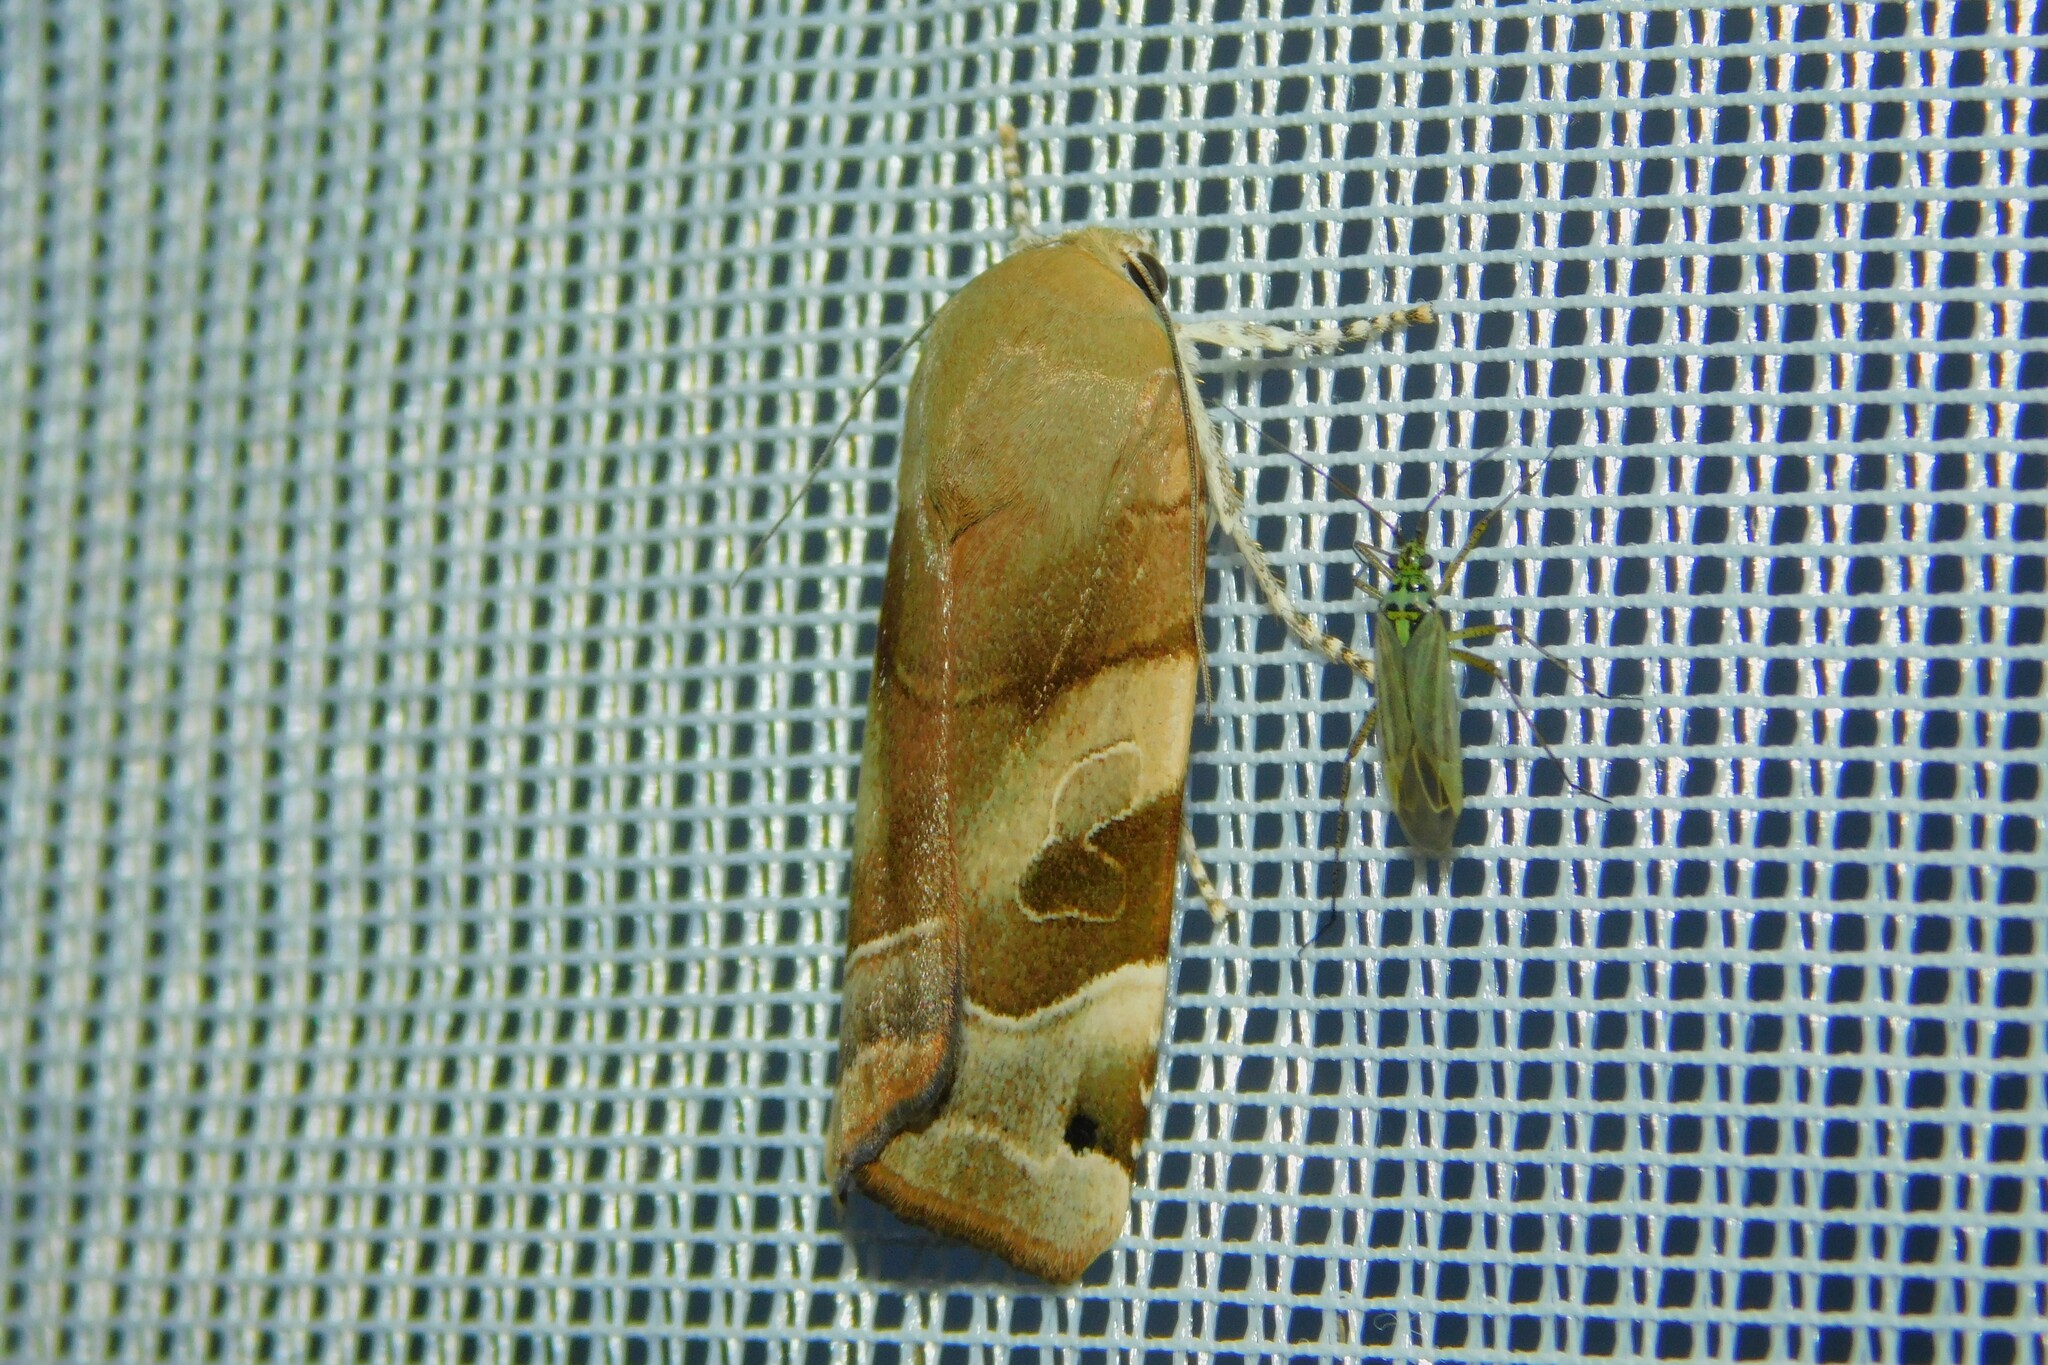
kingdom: Animalia
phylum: Arthropoda
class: Insecta
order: Lepidoptera
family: Noctuidae
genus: Noctua
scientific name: Noctua fimbriata
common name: Broad-bordered yellow underwing
